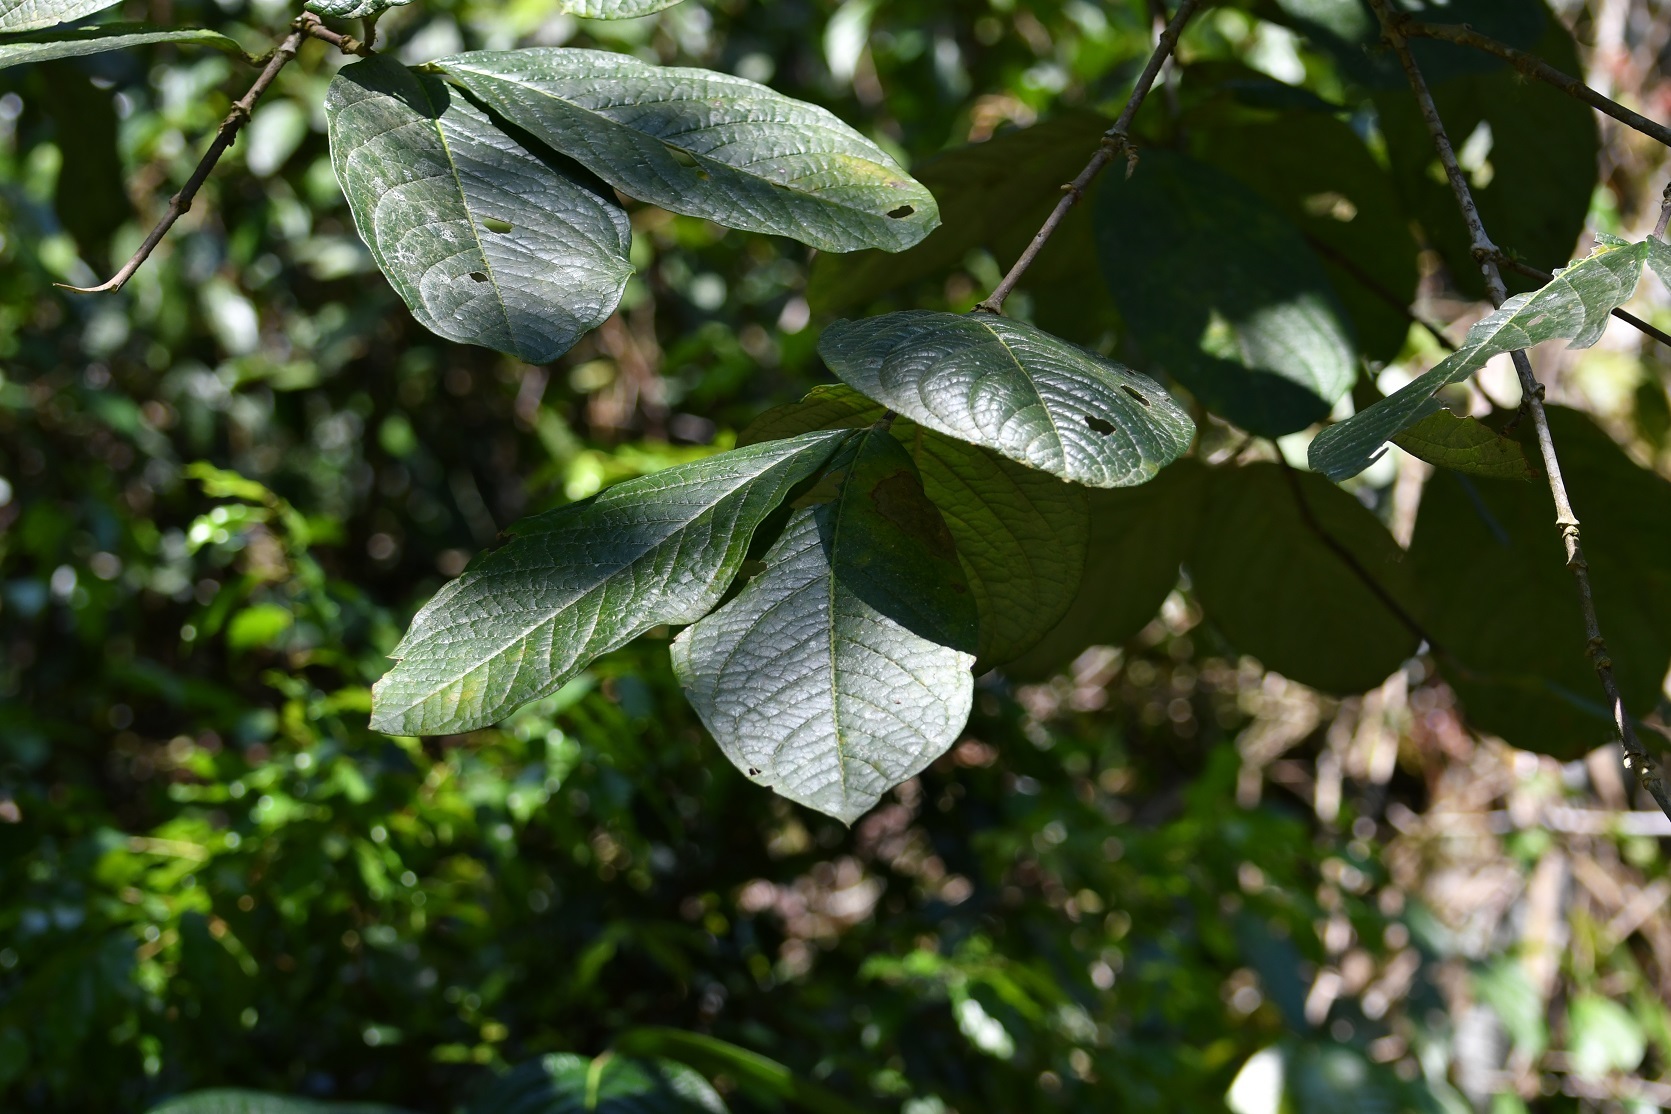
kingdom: Plantae
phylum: Tracheophyta
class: Magnoliopsida
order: Malpighiales
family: Malpighiaceae
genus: Bunchosia
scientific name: Bunchosia macrophylla
